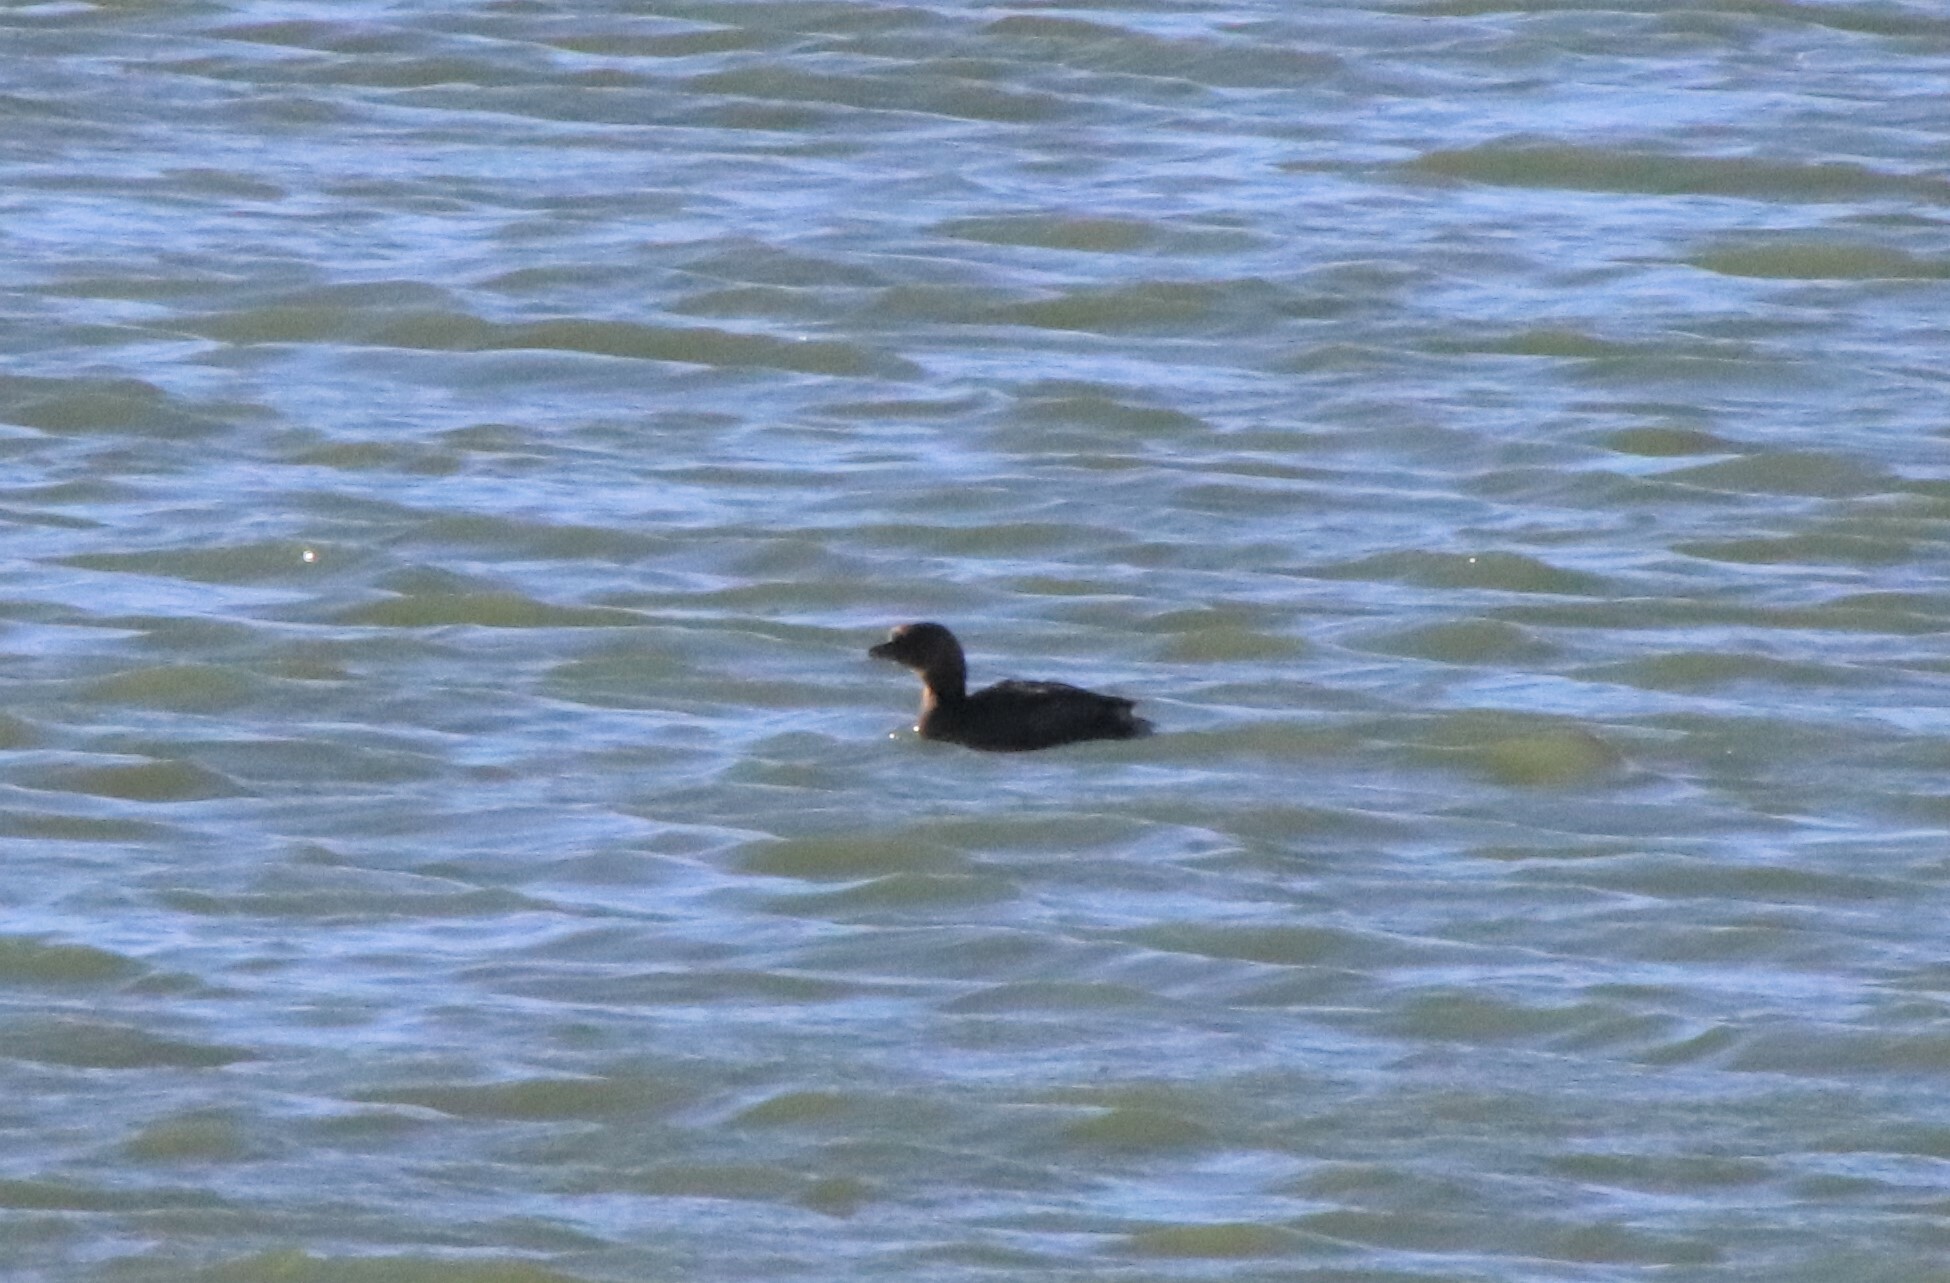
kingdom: Animalia
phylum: Chordata
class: Aves
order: Podicipediformes
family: Podicipedidae
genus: Podilymbus
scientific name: Podilymbus podiceps
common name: Pied-billed grebe
